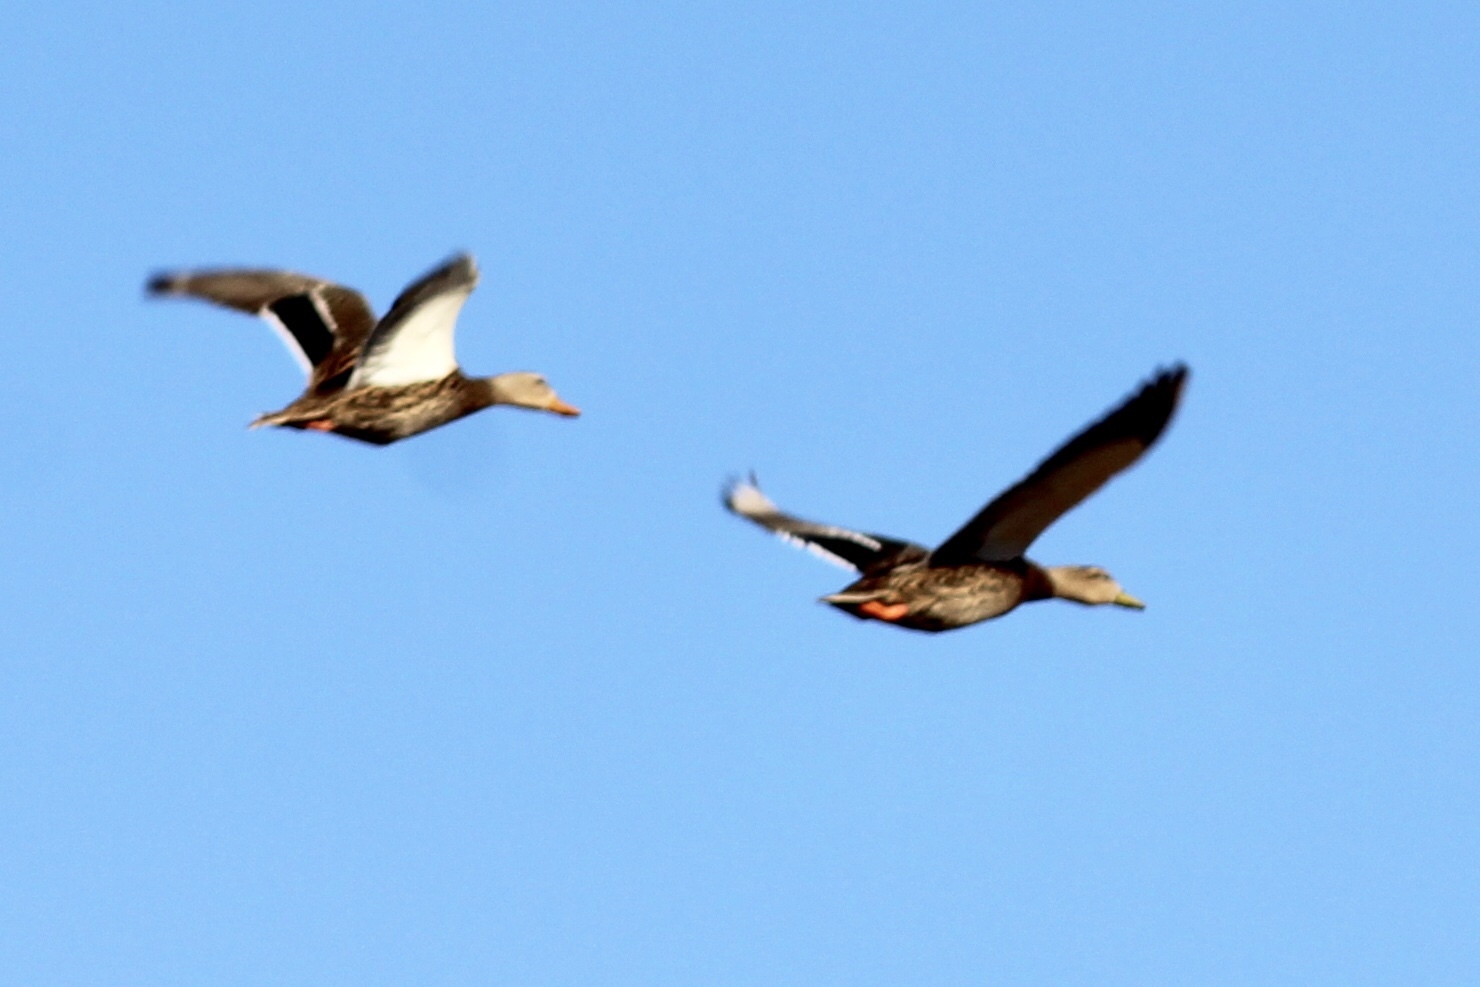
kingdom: Animalia
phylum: Chordata
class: Aves
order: Anseriformes
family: Anatidae
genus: Anas
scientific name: Anas
